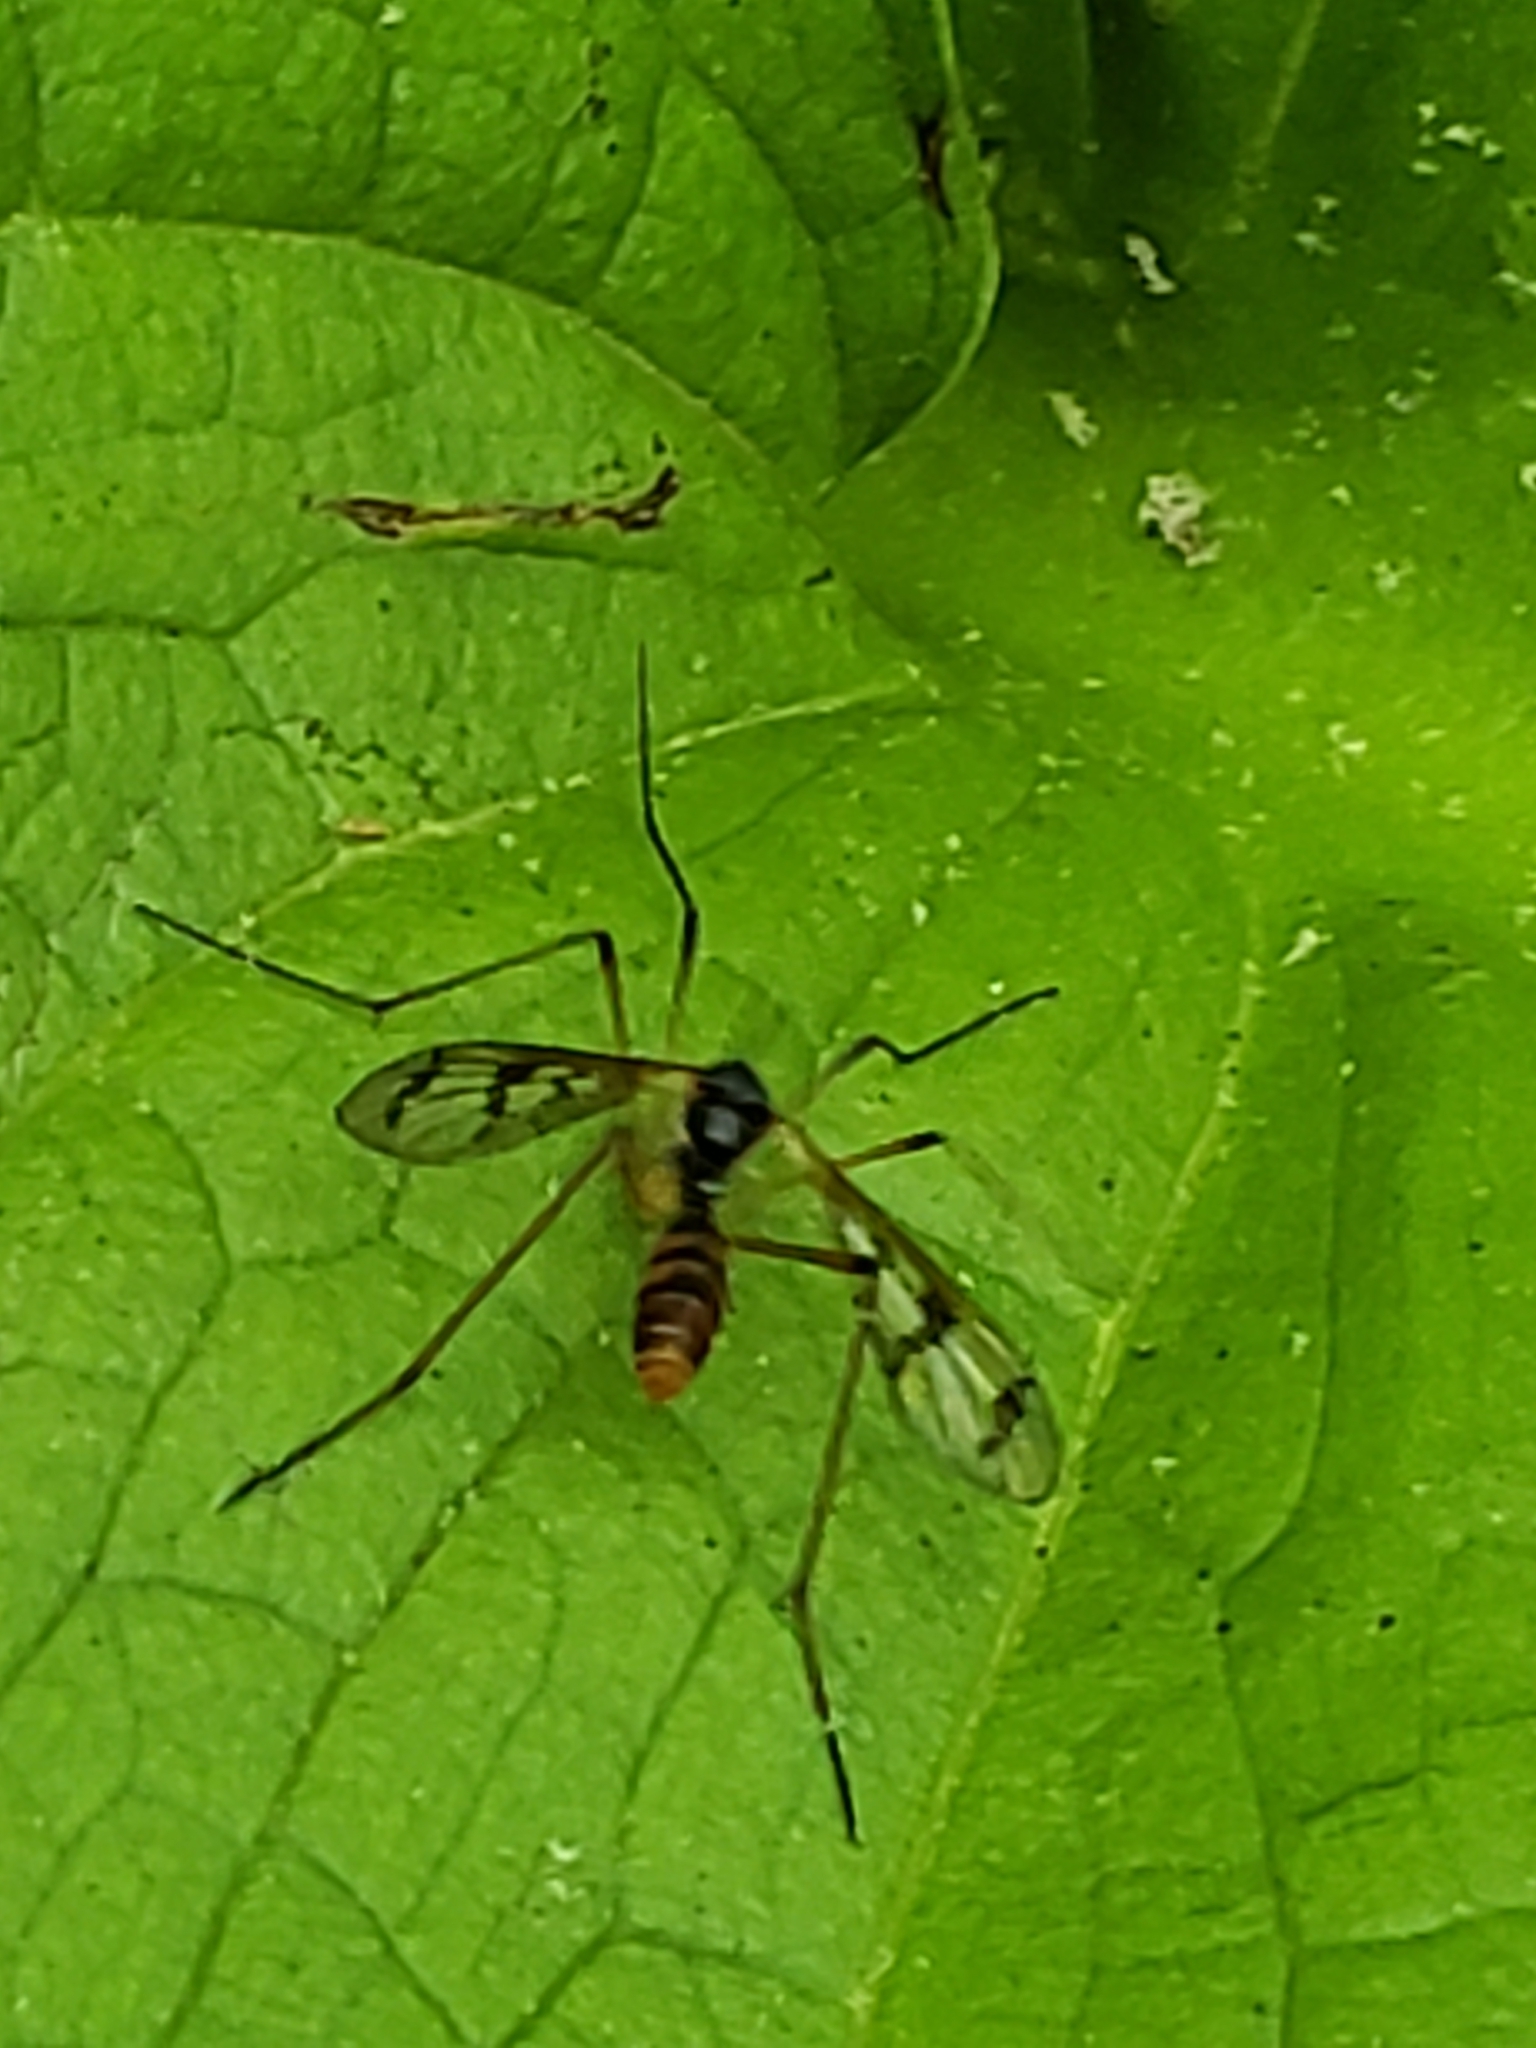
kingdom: Animalia
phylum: Arthropoda
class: Insecta
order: Diptera
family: Ptychopteridae
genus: Ptychoptera
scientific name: Ptychoptera quadrifasciata
